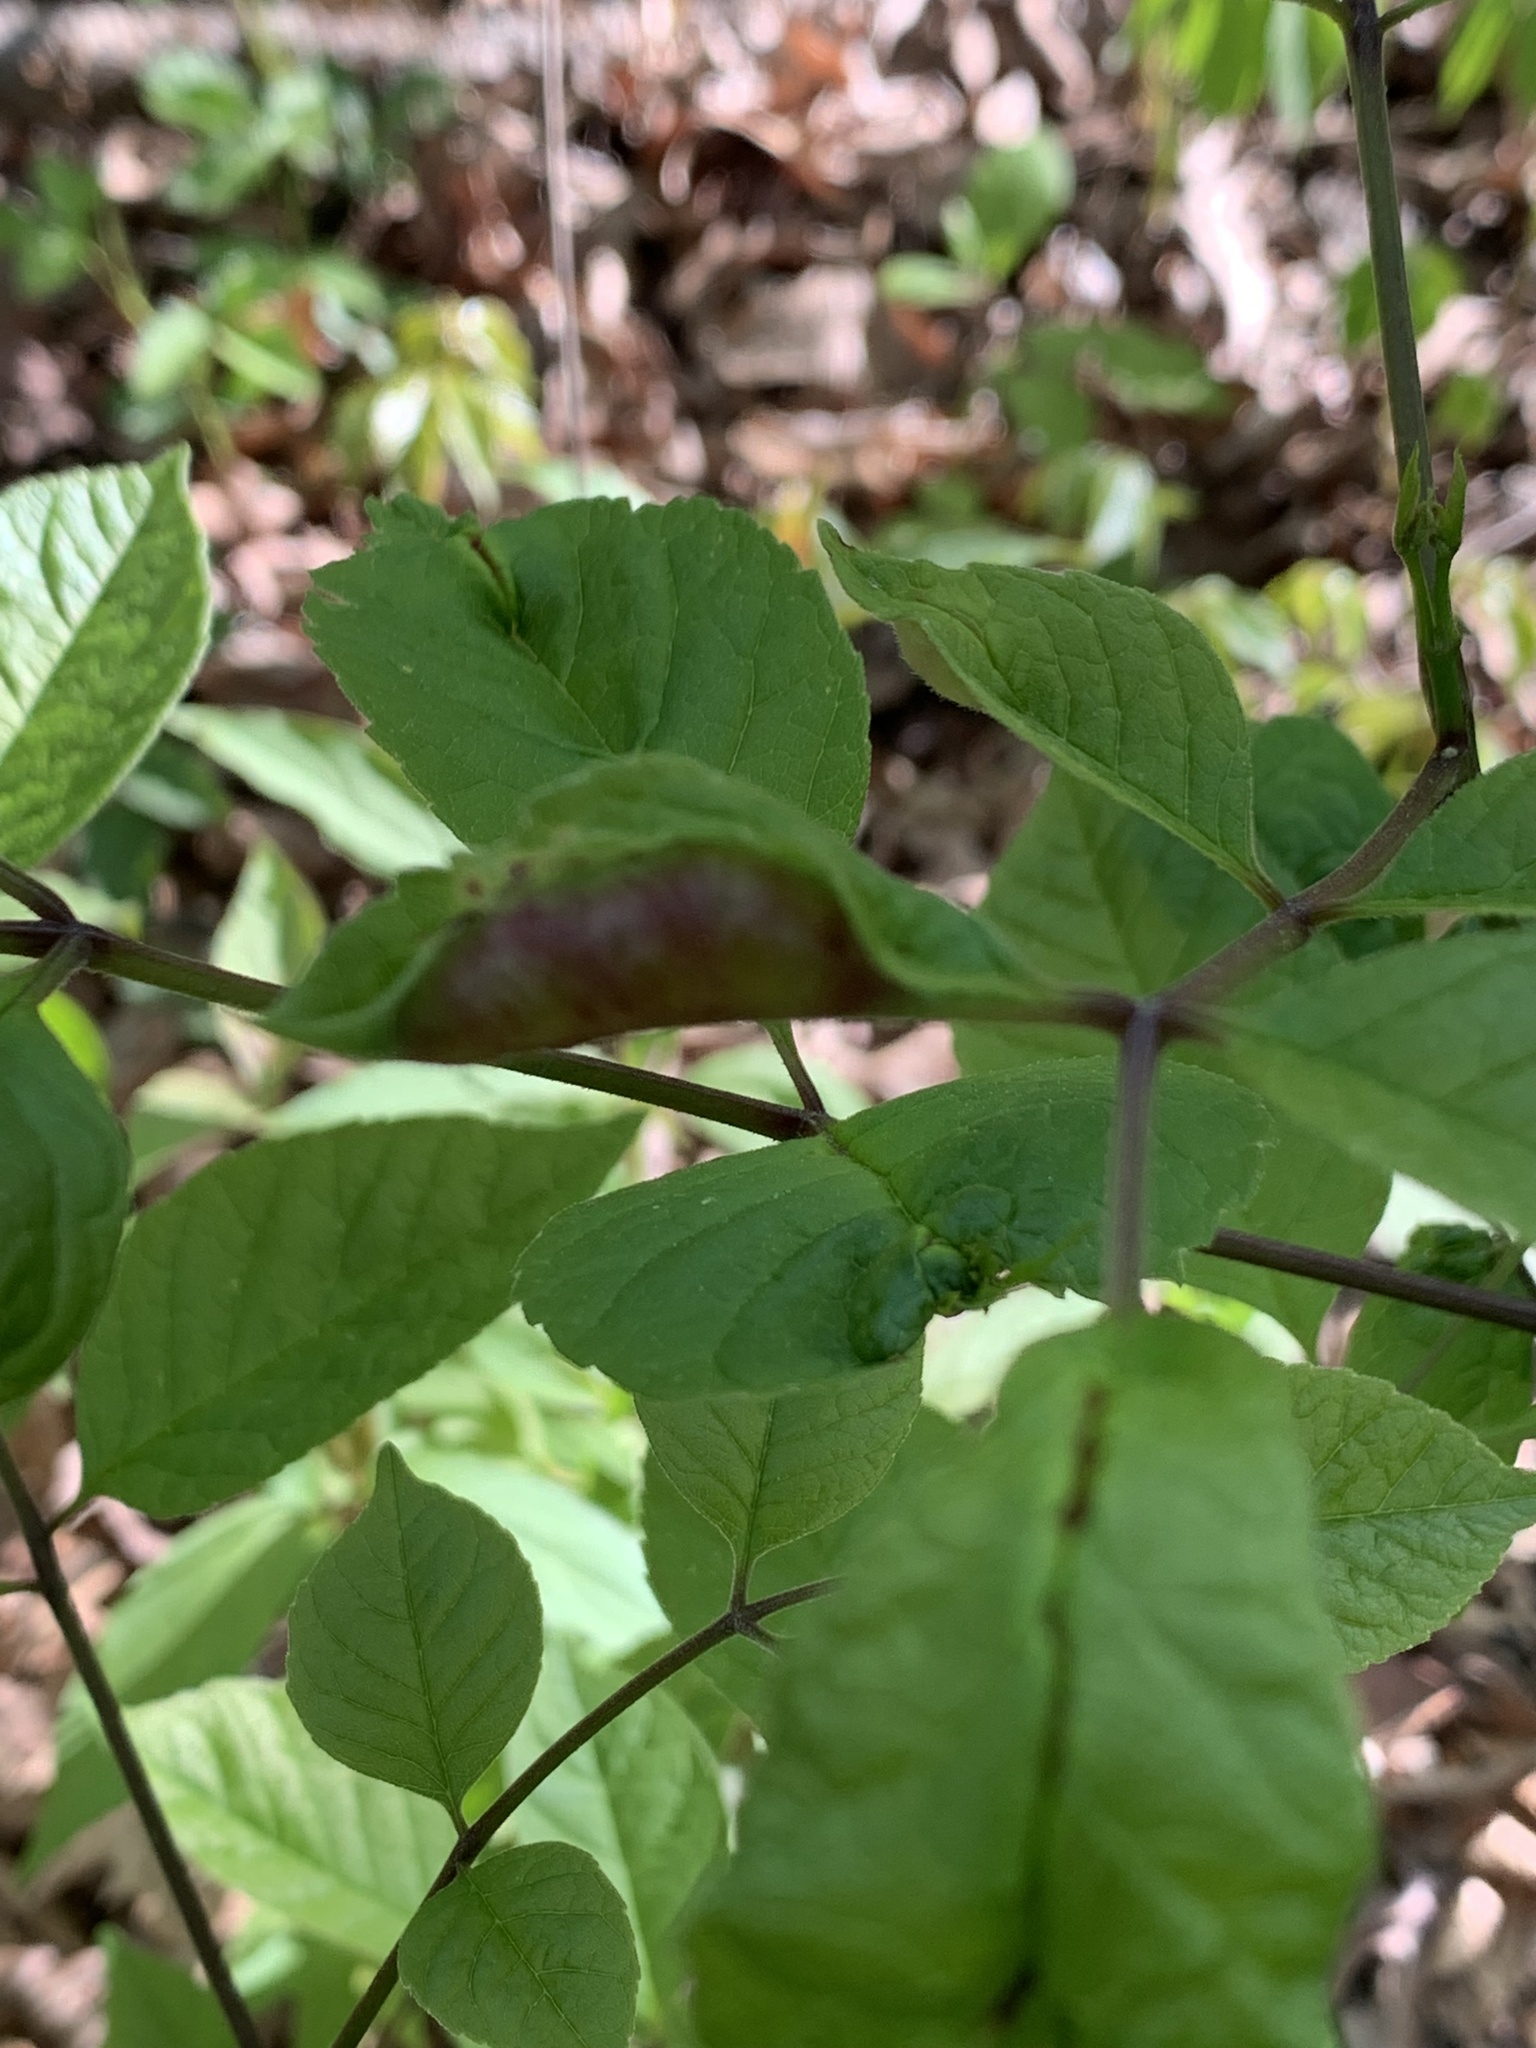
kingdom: Animalia
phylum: Arthropoda
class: Insecta
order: Diptera
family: Cecidomyiidae
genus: Dasineura
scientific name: Dasineura tumidosae
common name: Ash petiole gall midge
